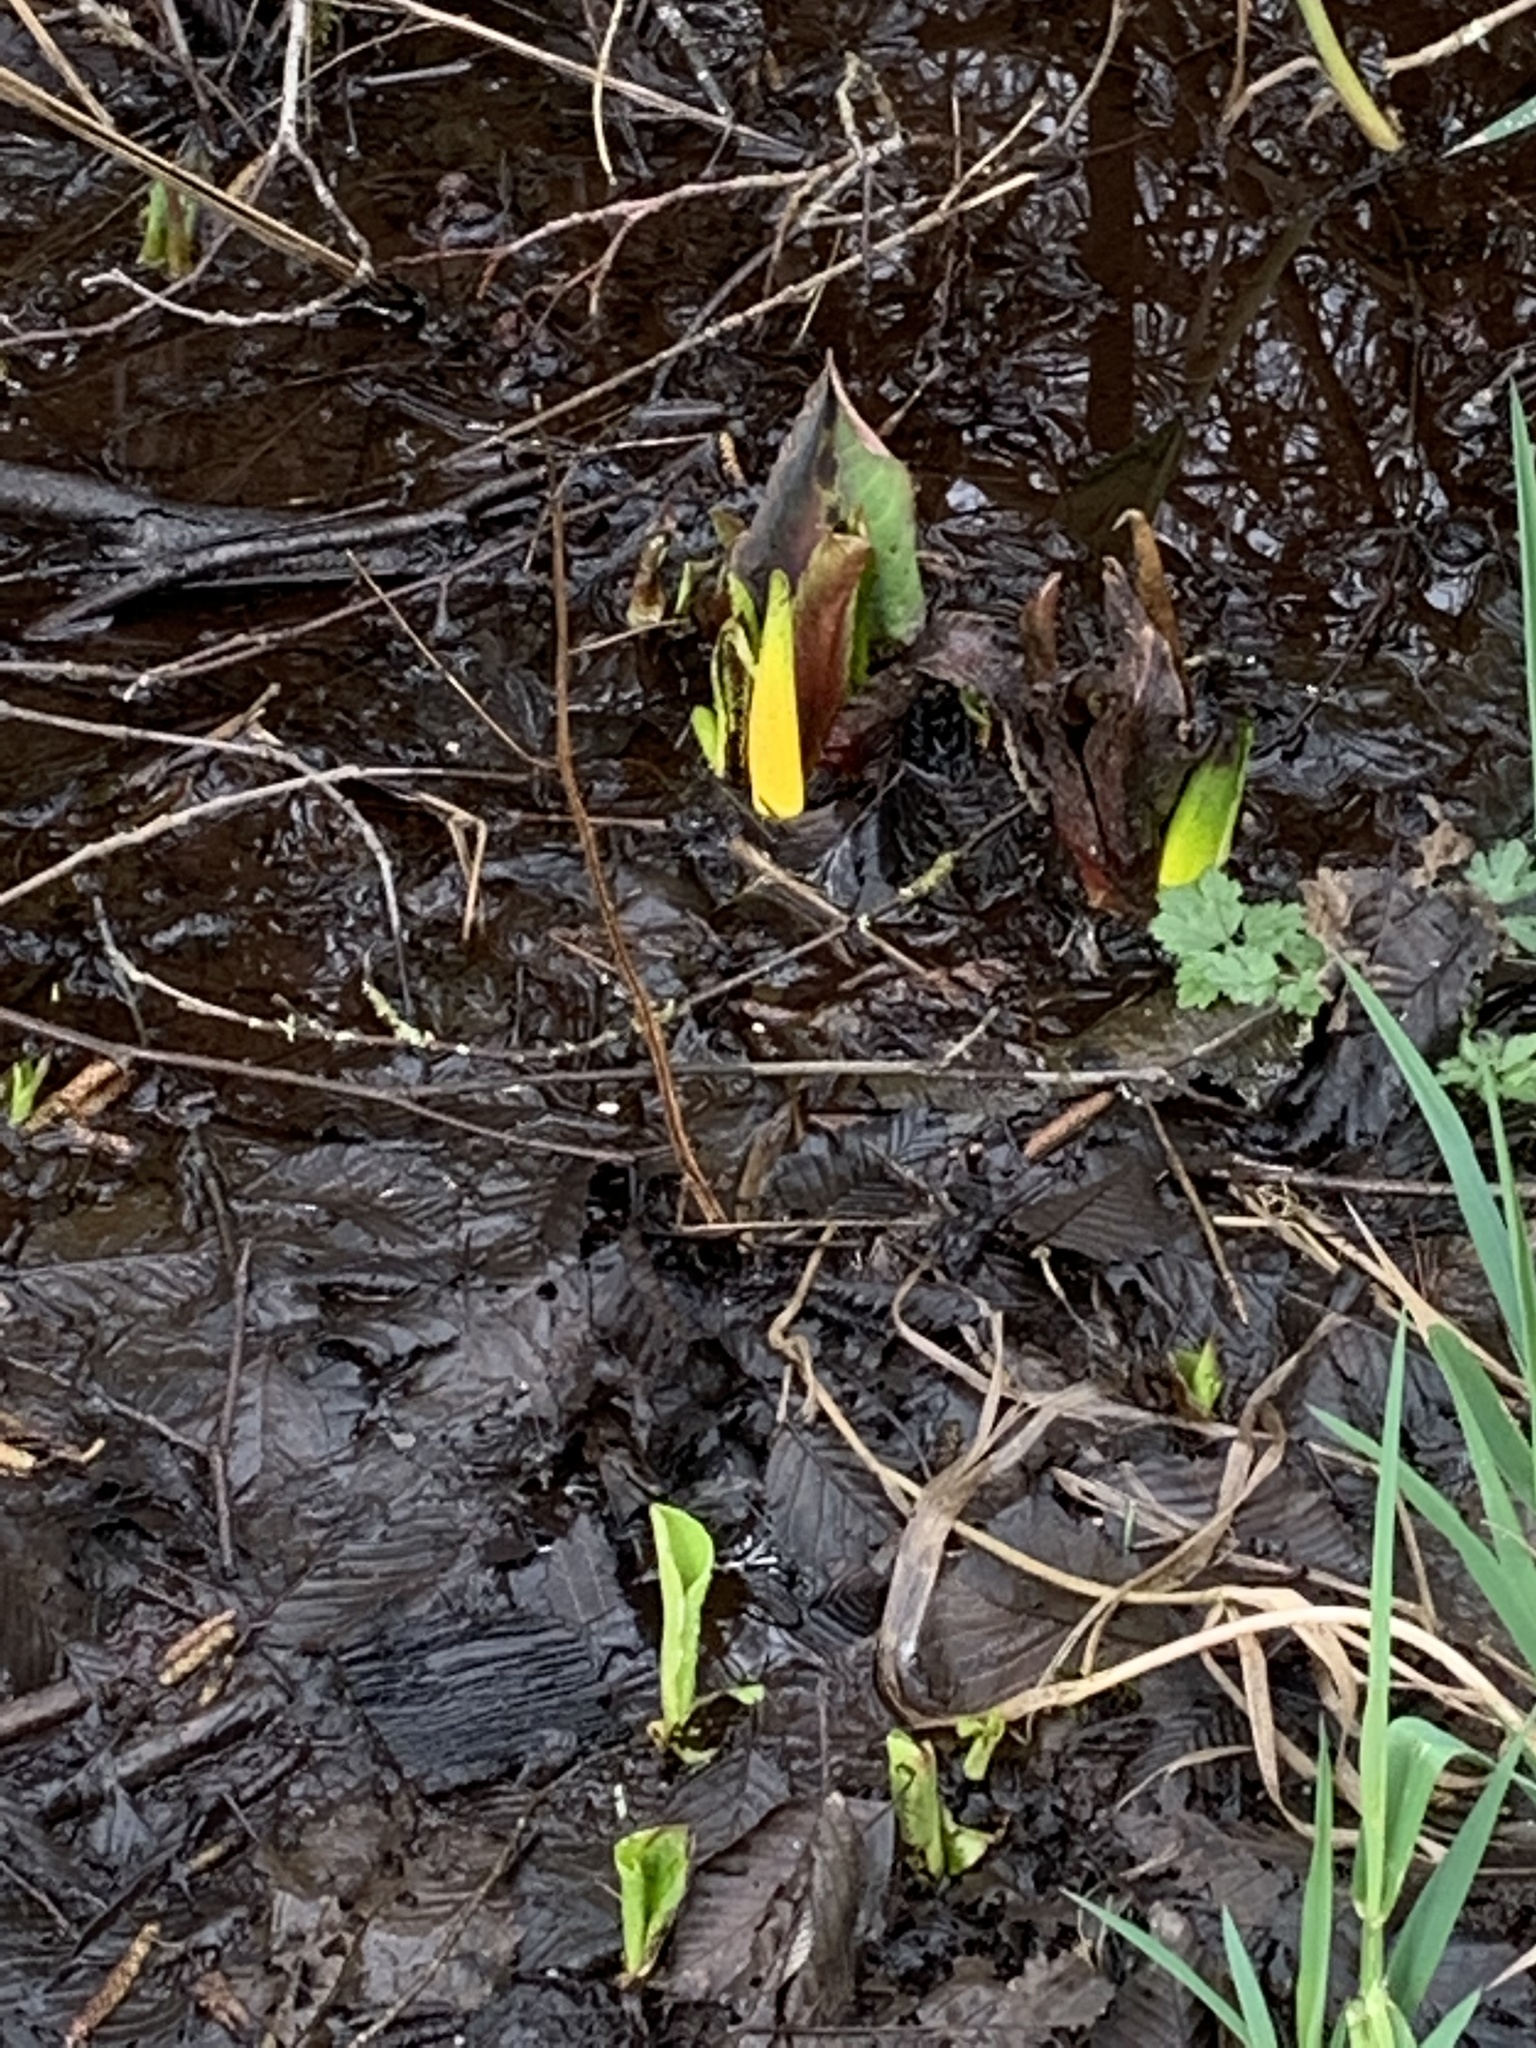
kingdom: Plantae
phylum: Tracheophyta
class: Liliopsida
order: Alismatales
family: Araceae
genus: Lysichiton
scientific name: Lysichiton americanus
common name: American skunk cabbage
